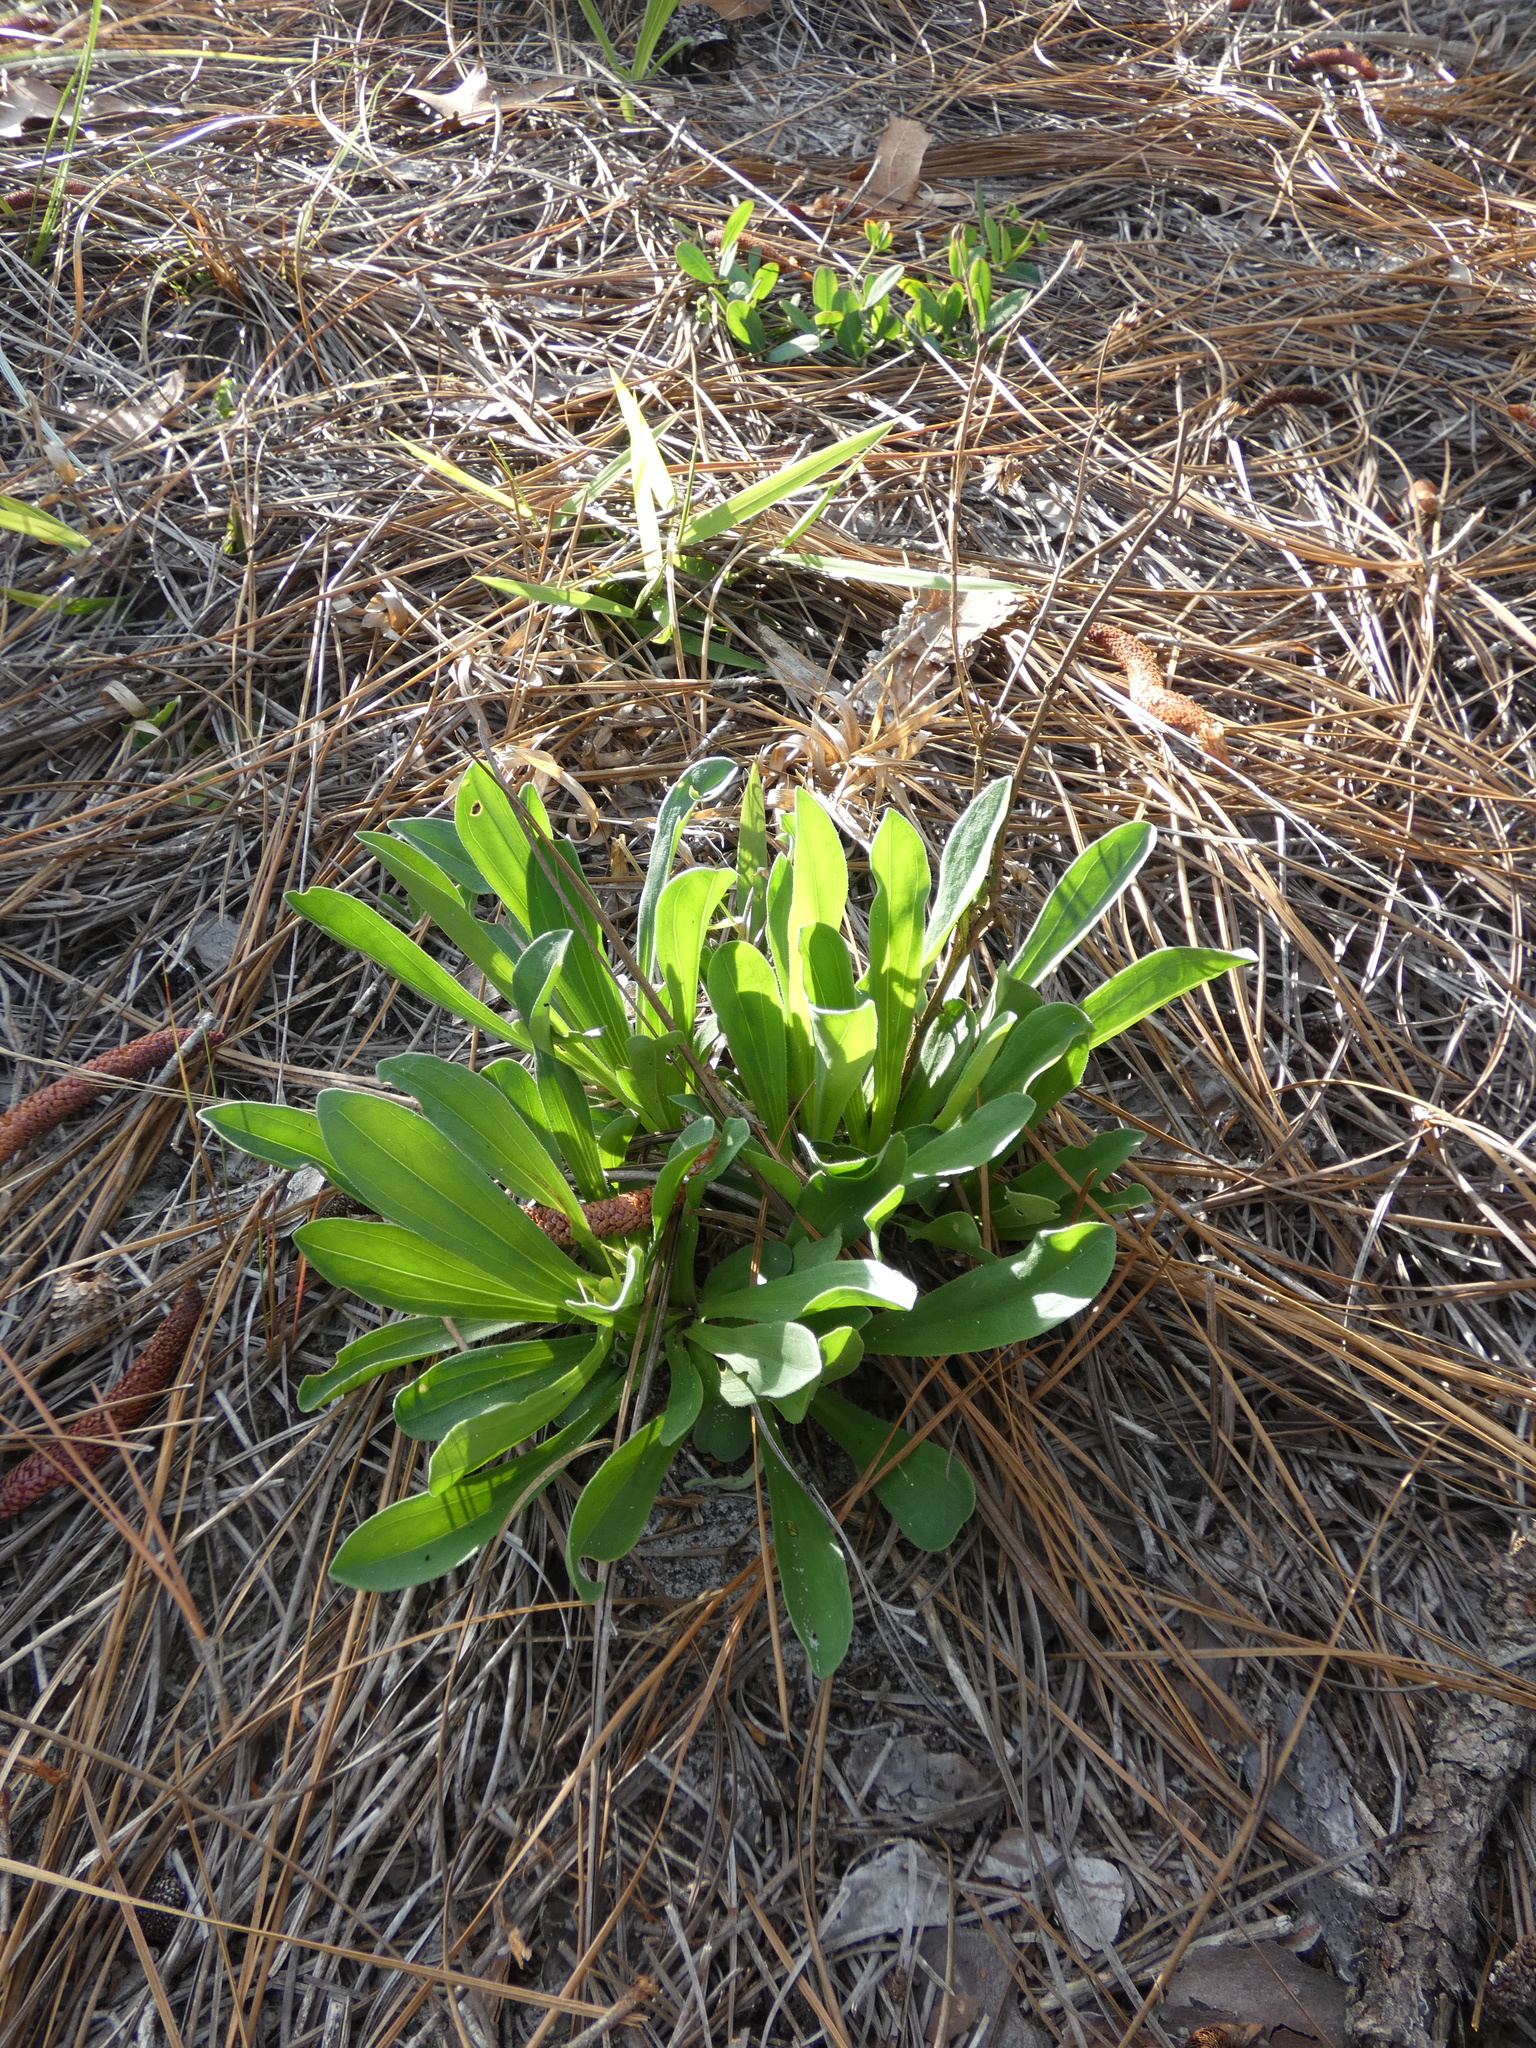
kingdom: Plantae
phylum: Tracheophyta
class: Magnoliopsida
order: Asterales
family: Asteraceae
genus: Carphephorus
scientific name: Carphephorus bellidifolius
